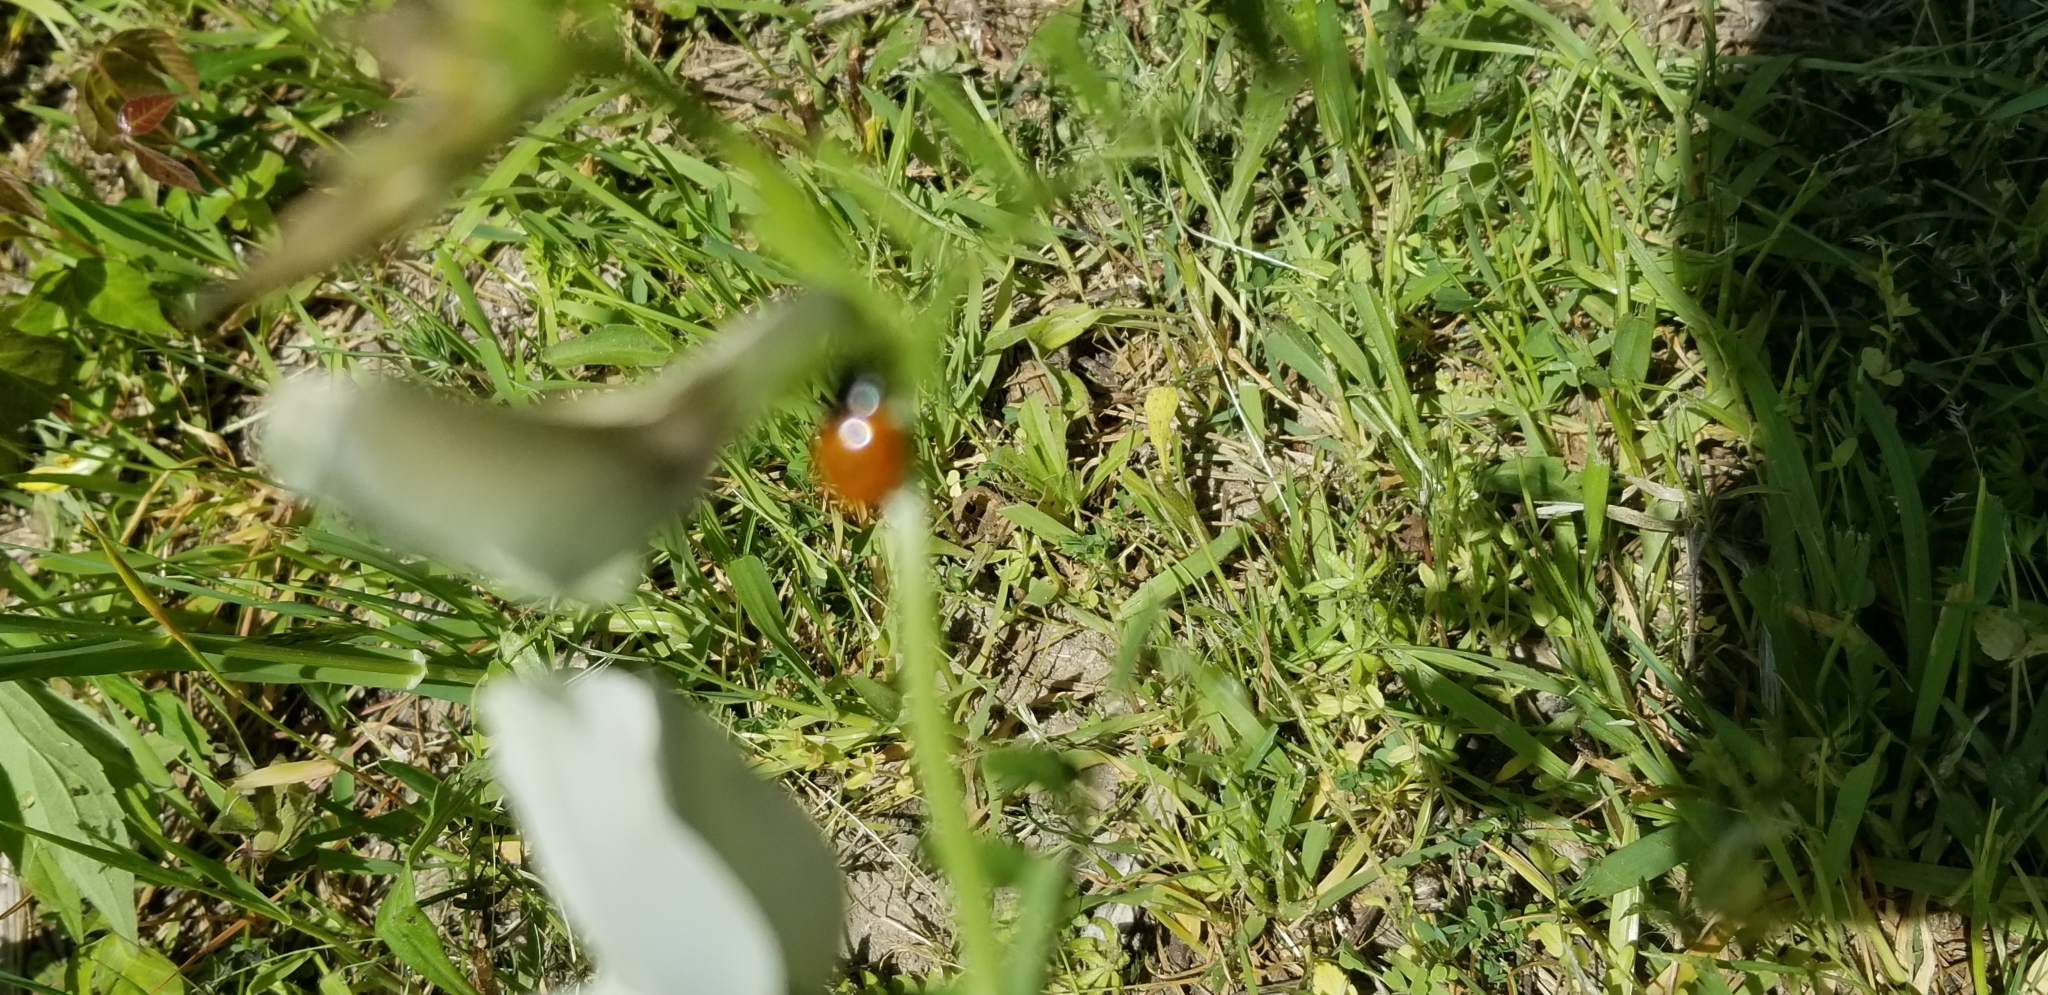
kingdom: Animalia
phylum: Arthropoda
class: Insecta
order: Coleoptera
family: Coccinellidae
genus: Coccinella
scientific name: Coccinella septempunctata
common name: Sevenspotted lady beetle
